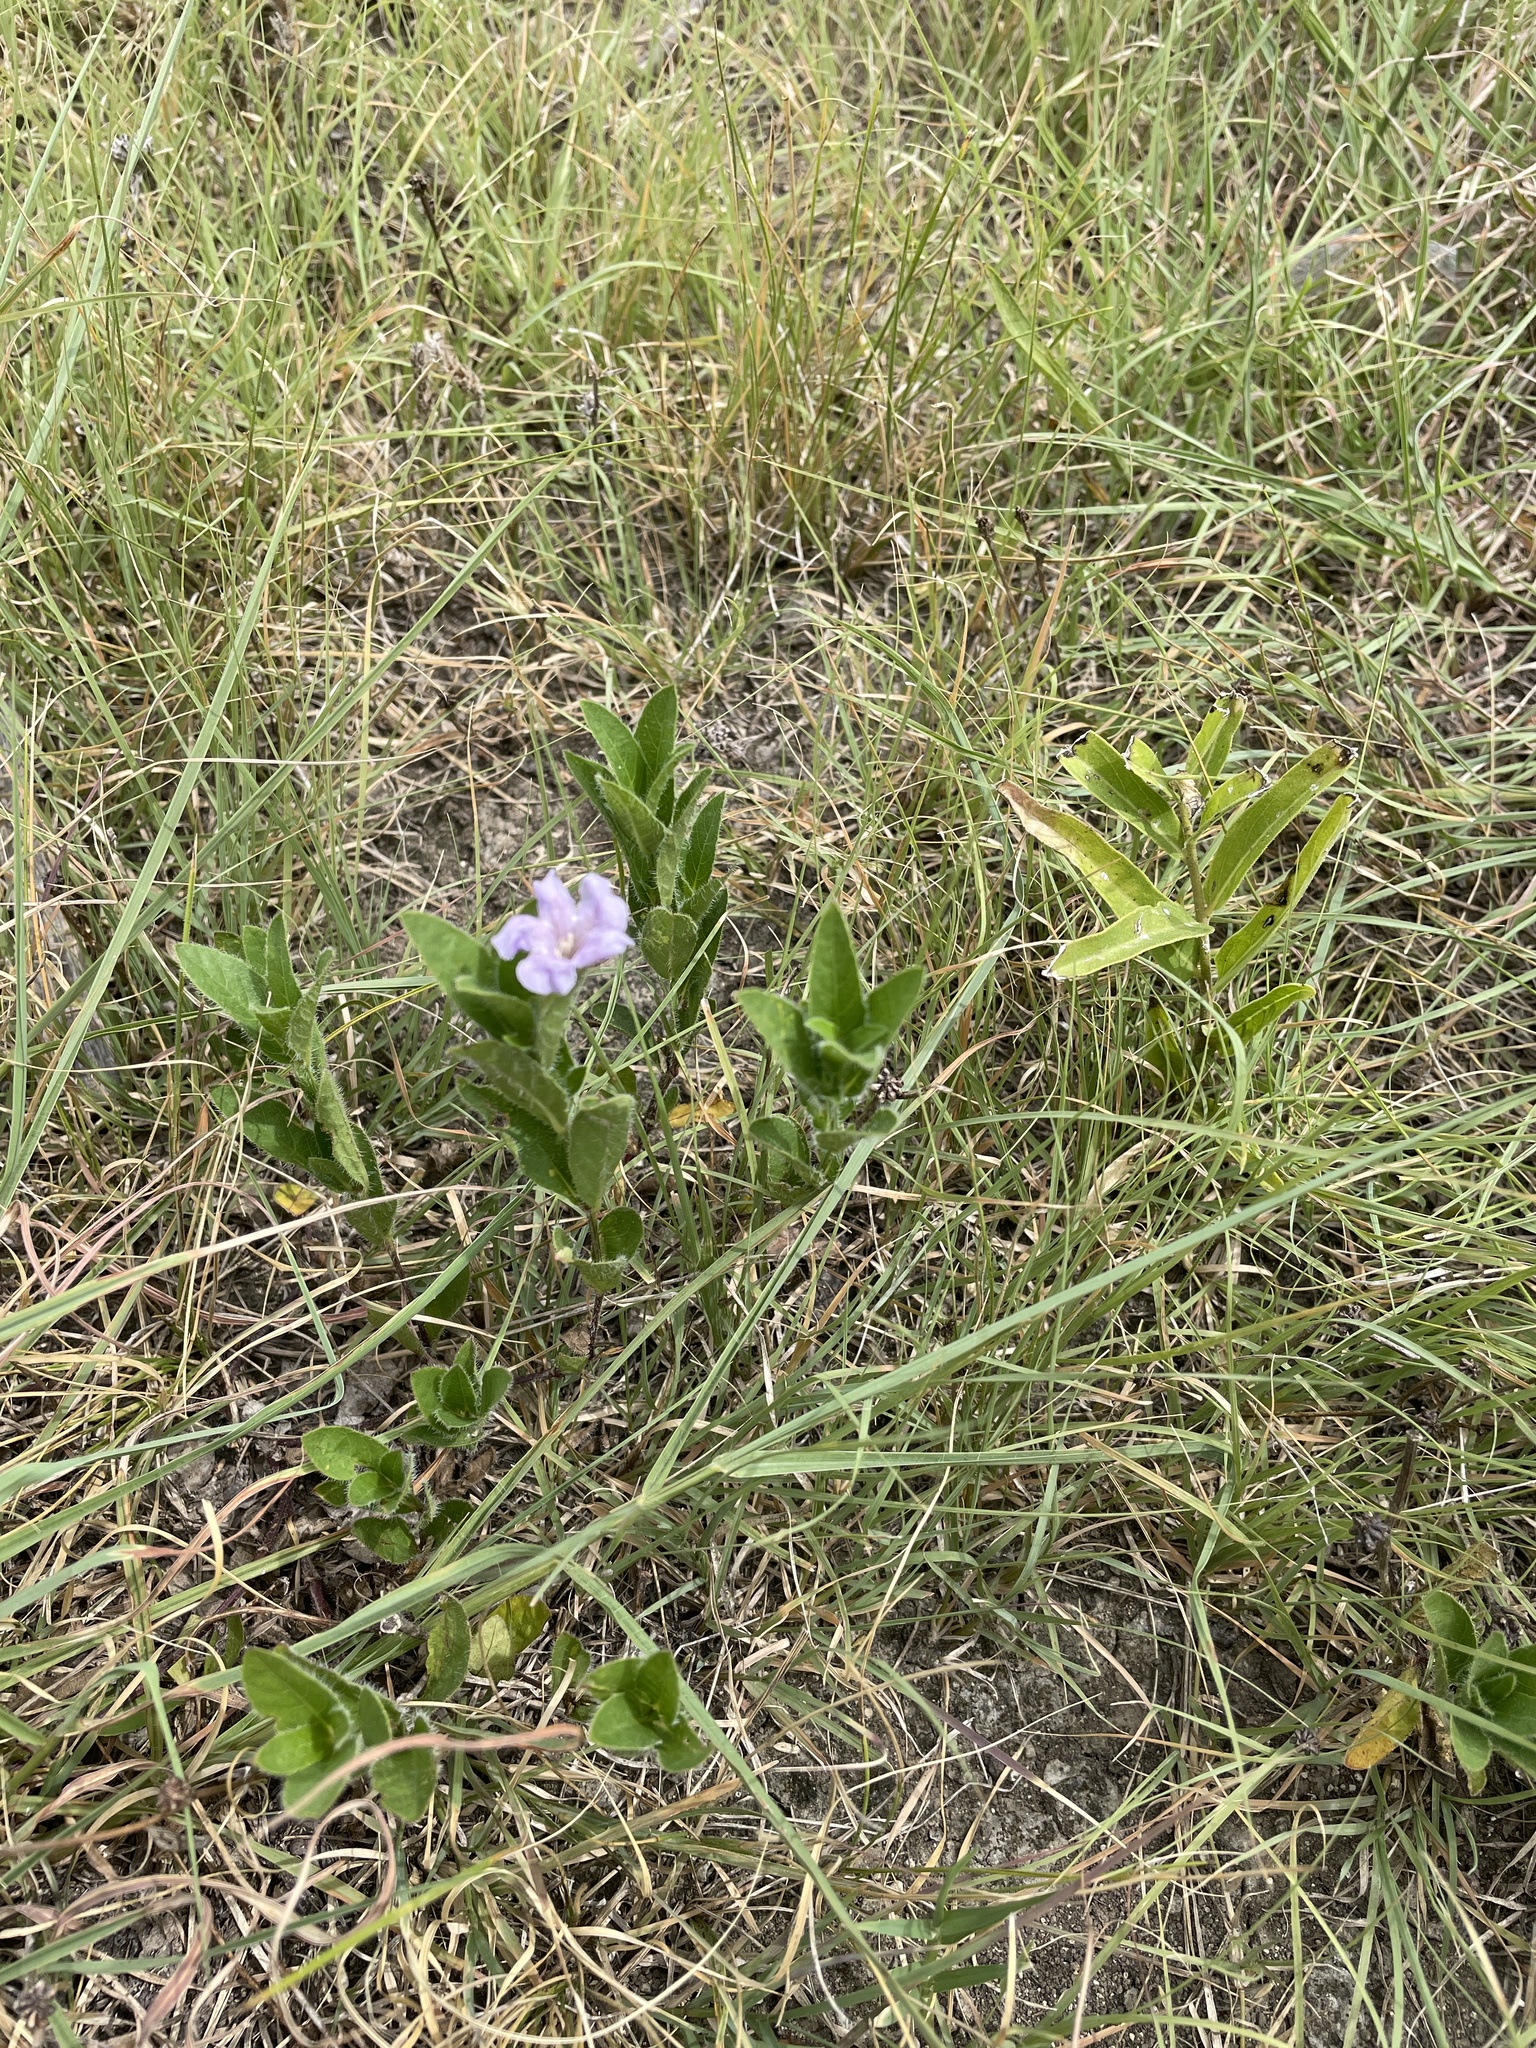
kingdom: Plantae
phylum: Tracheophyta
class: Magnoliopsida
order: Lamiales
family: Acanthaceae
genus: Ruellia
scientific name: Ruellia humilis
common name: Fringe-leaf ruellia
